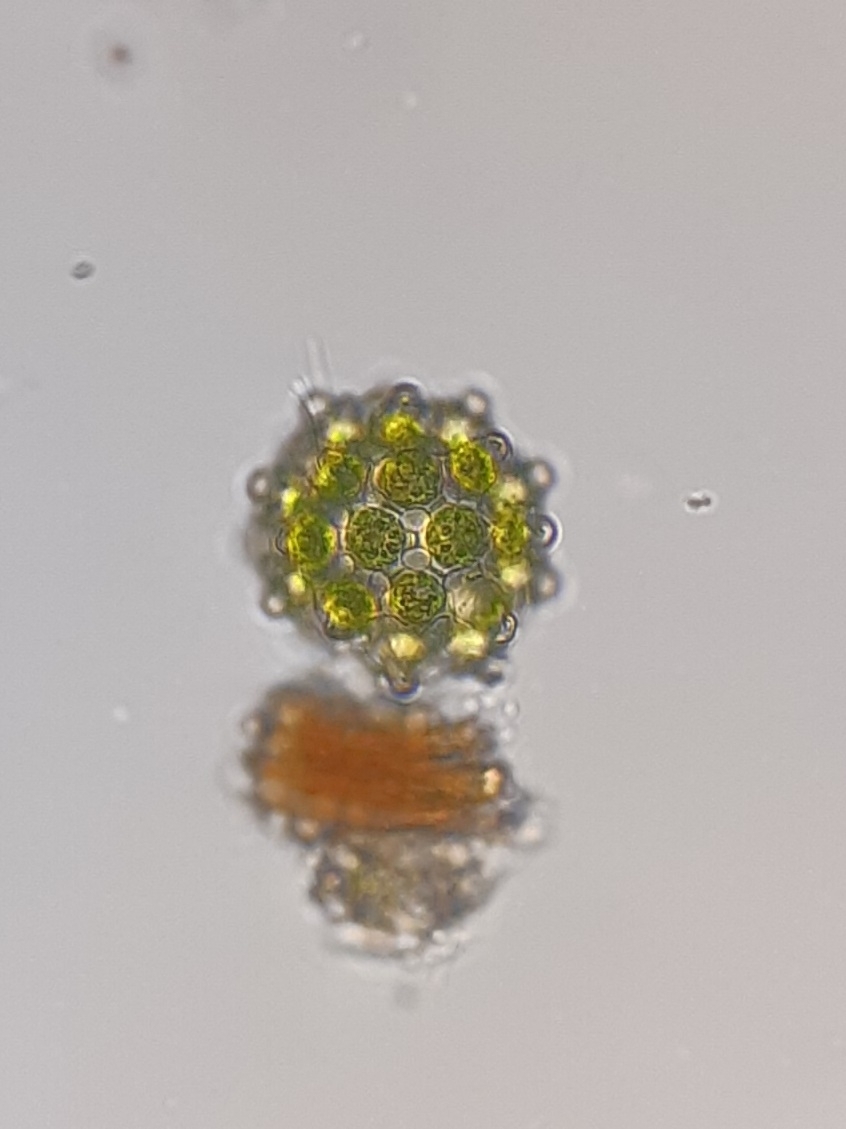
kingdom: Plantae
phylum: Chlorophyta
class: Chlorophyceae
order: Sphaeropleales
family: Scenedesmaceae
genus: Coelastrum
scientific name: Coelastrum cambricum
